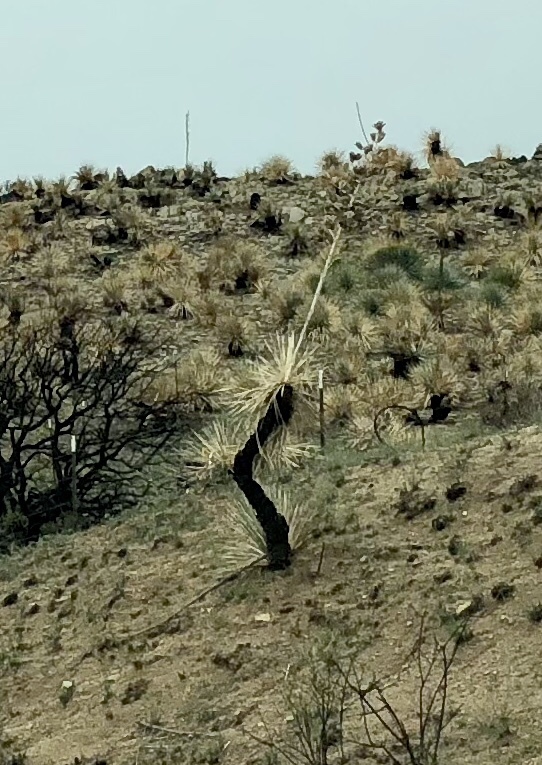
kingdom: Plantae
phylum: Tracheophyta
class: Liliopsida
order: Asparagales
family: Asparagaceae
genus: Yucca
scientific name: Yucca elata
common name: Palmella
